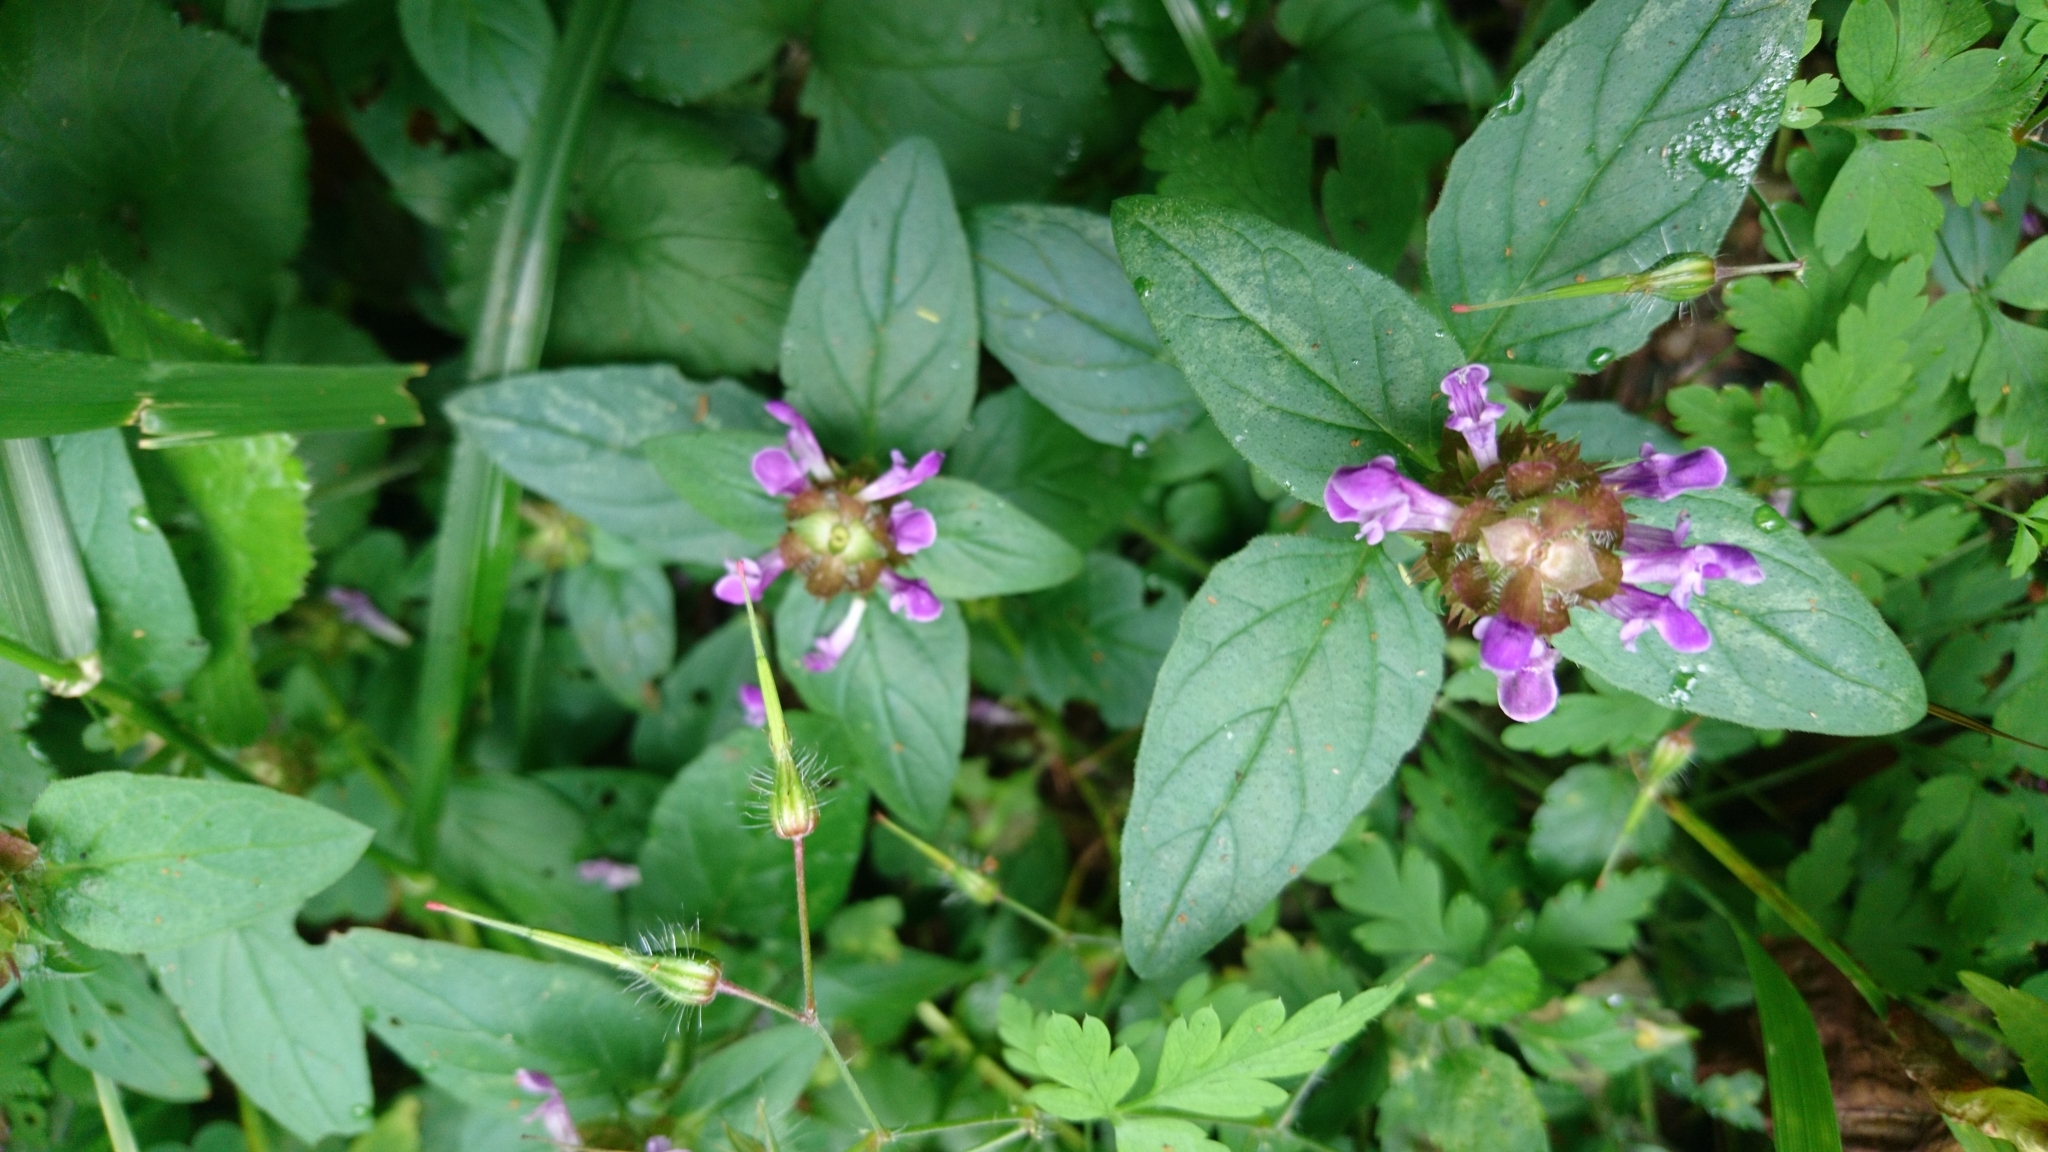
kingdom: Plantae
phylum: Tracheophyta
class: Magnoliopsida
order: Lamiales
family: Lamiaceae
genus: Prunella
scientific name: Prunella vulgaris
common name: Heal-all
